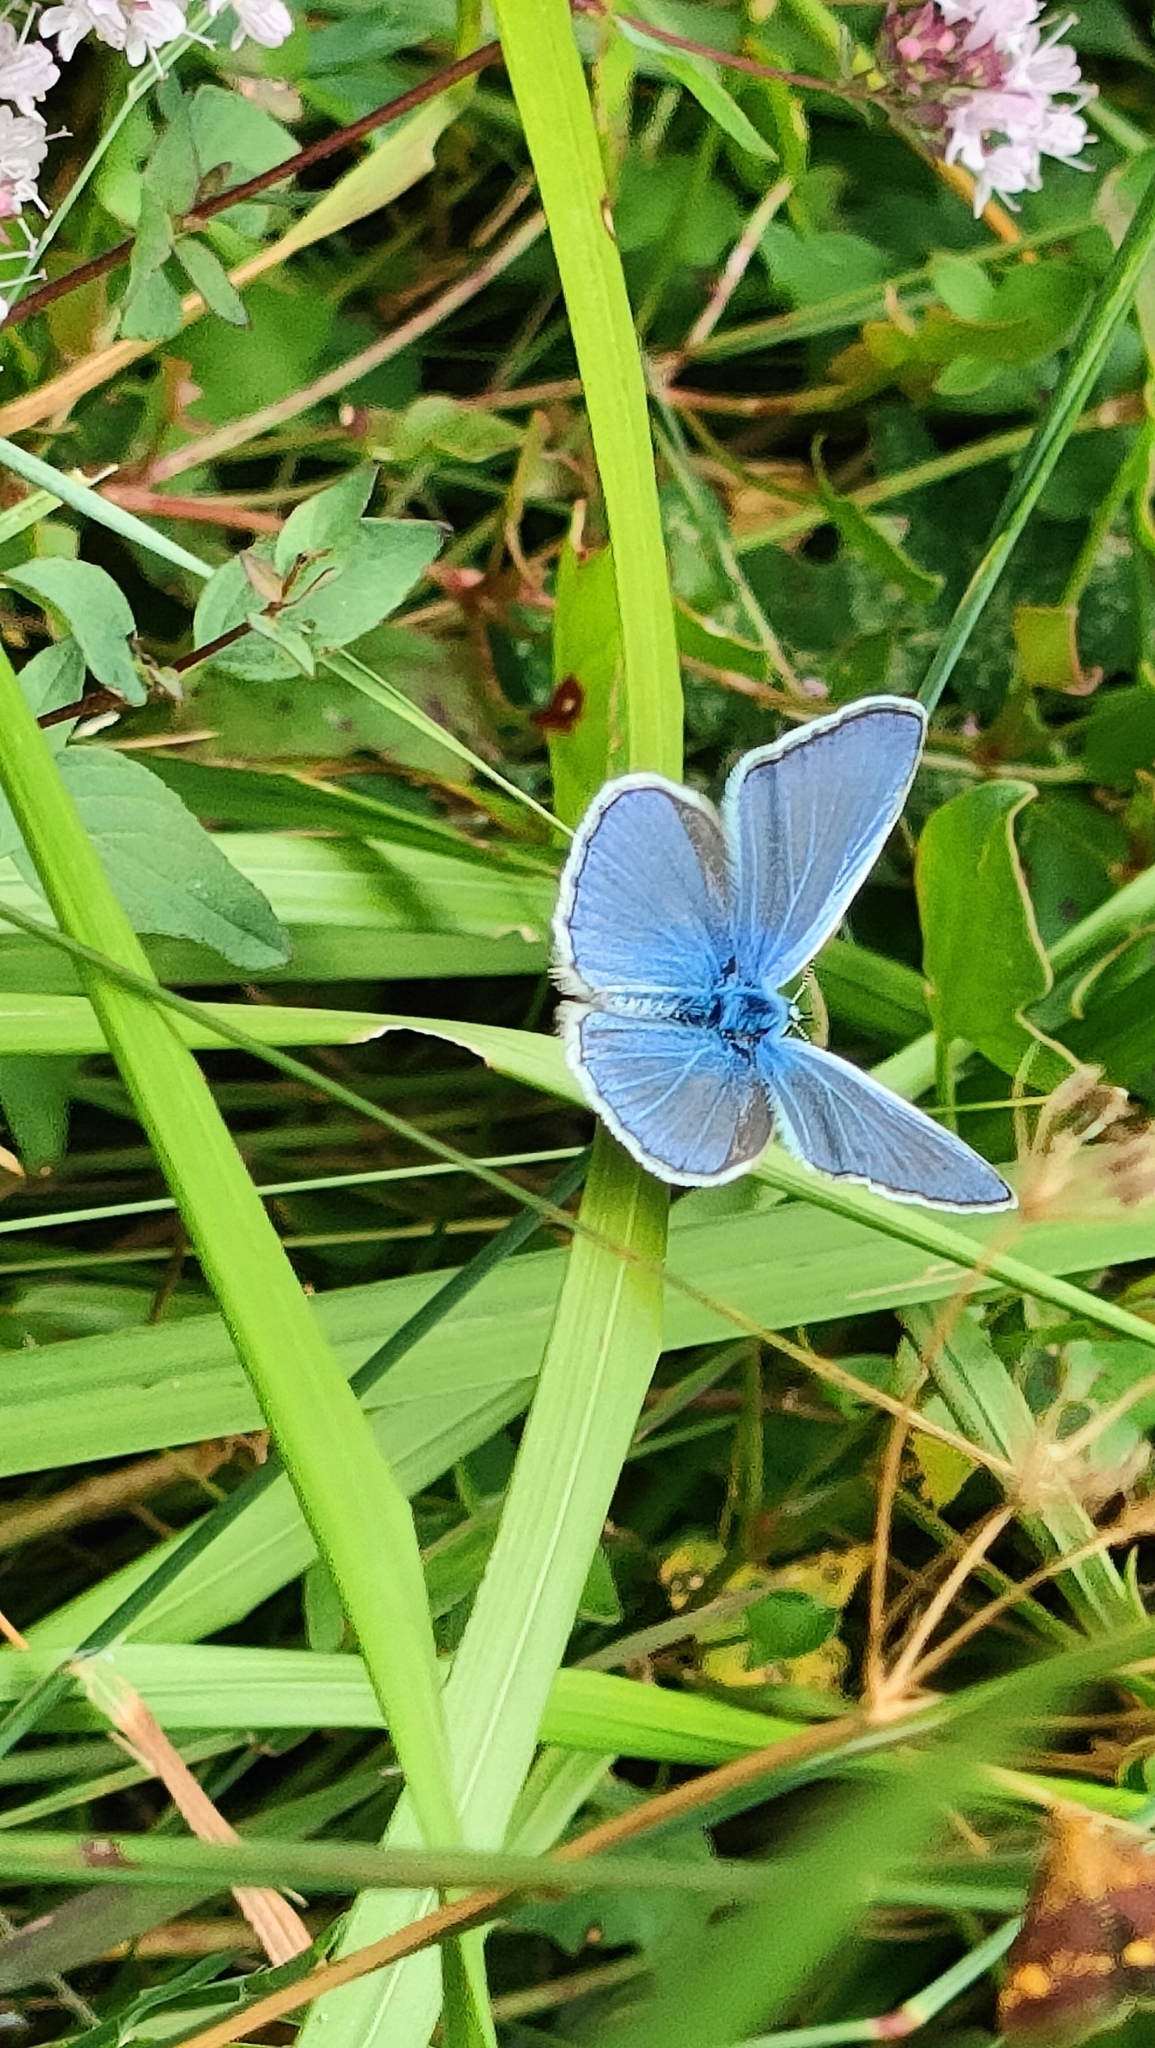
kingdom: Animalia
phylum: Arthropoda
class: Insecta
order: Lepidoptera
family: Lycaenidae
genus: Polyommatus
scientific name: Polyommatus icarus
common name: Common blue
